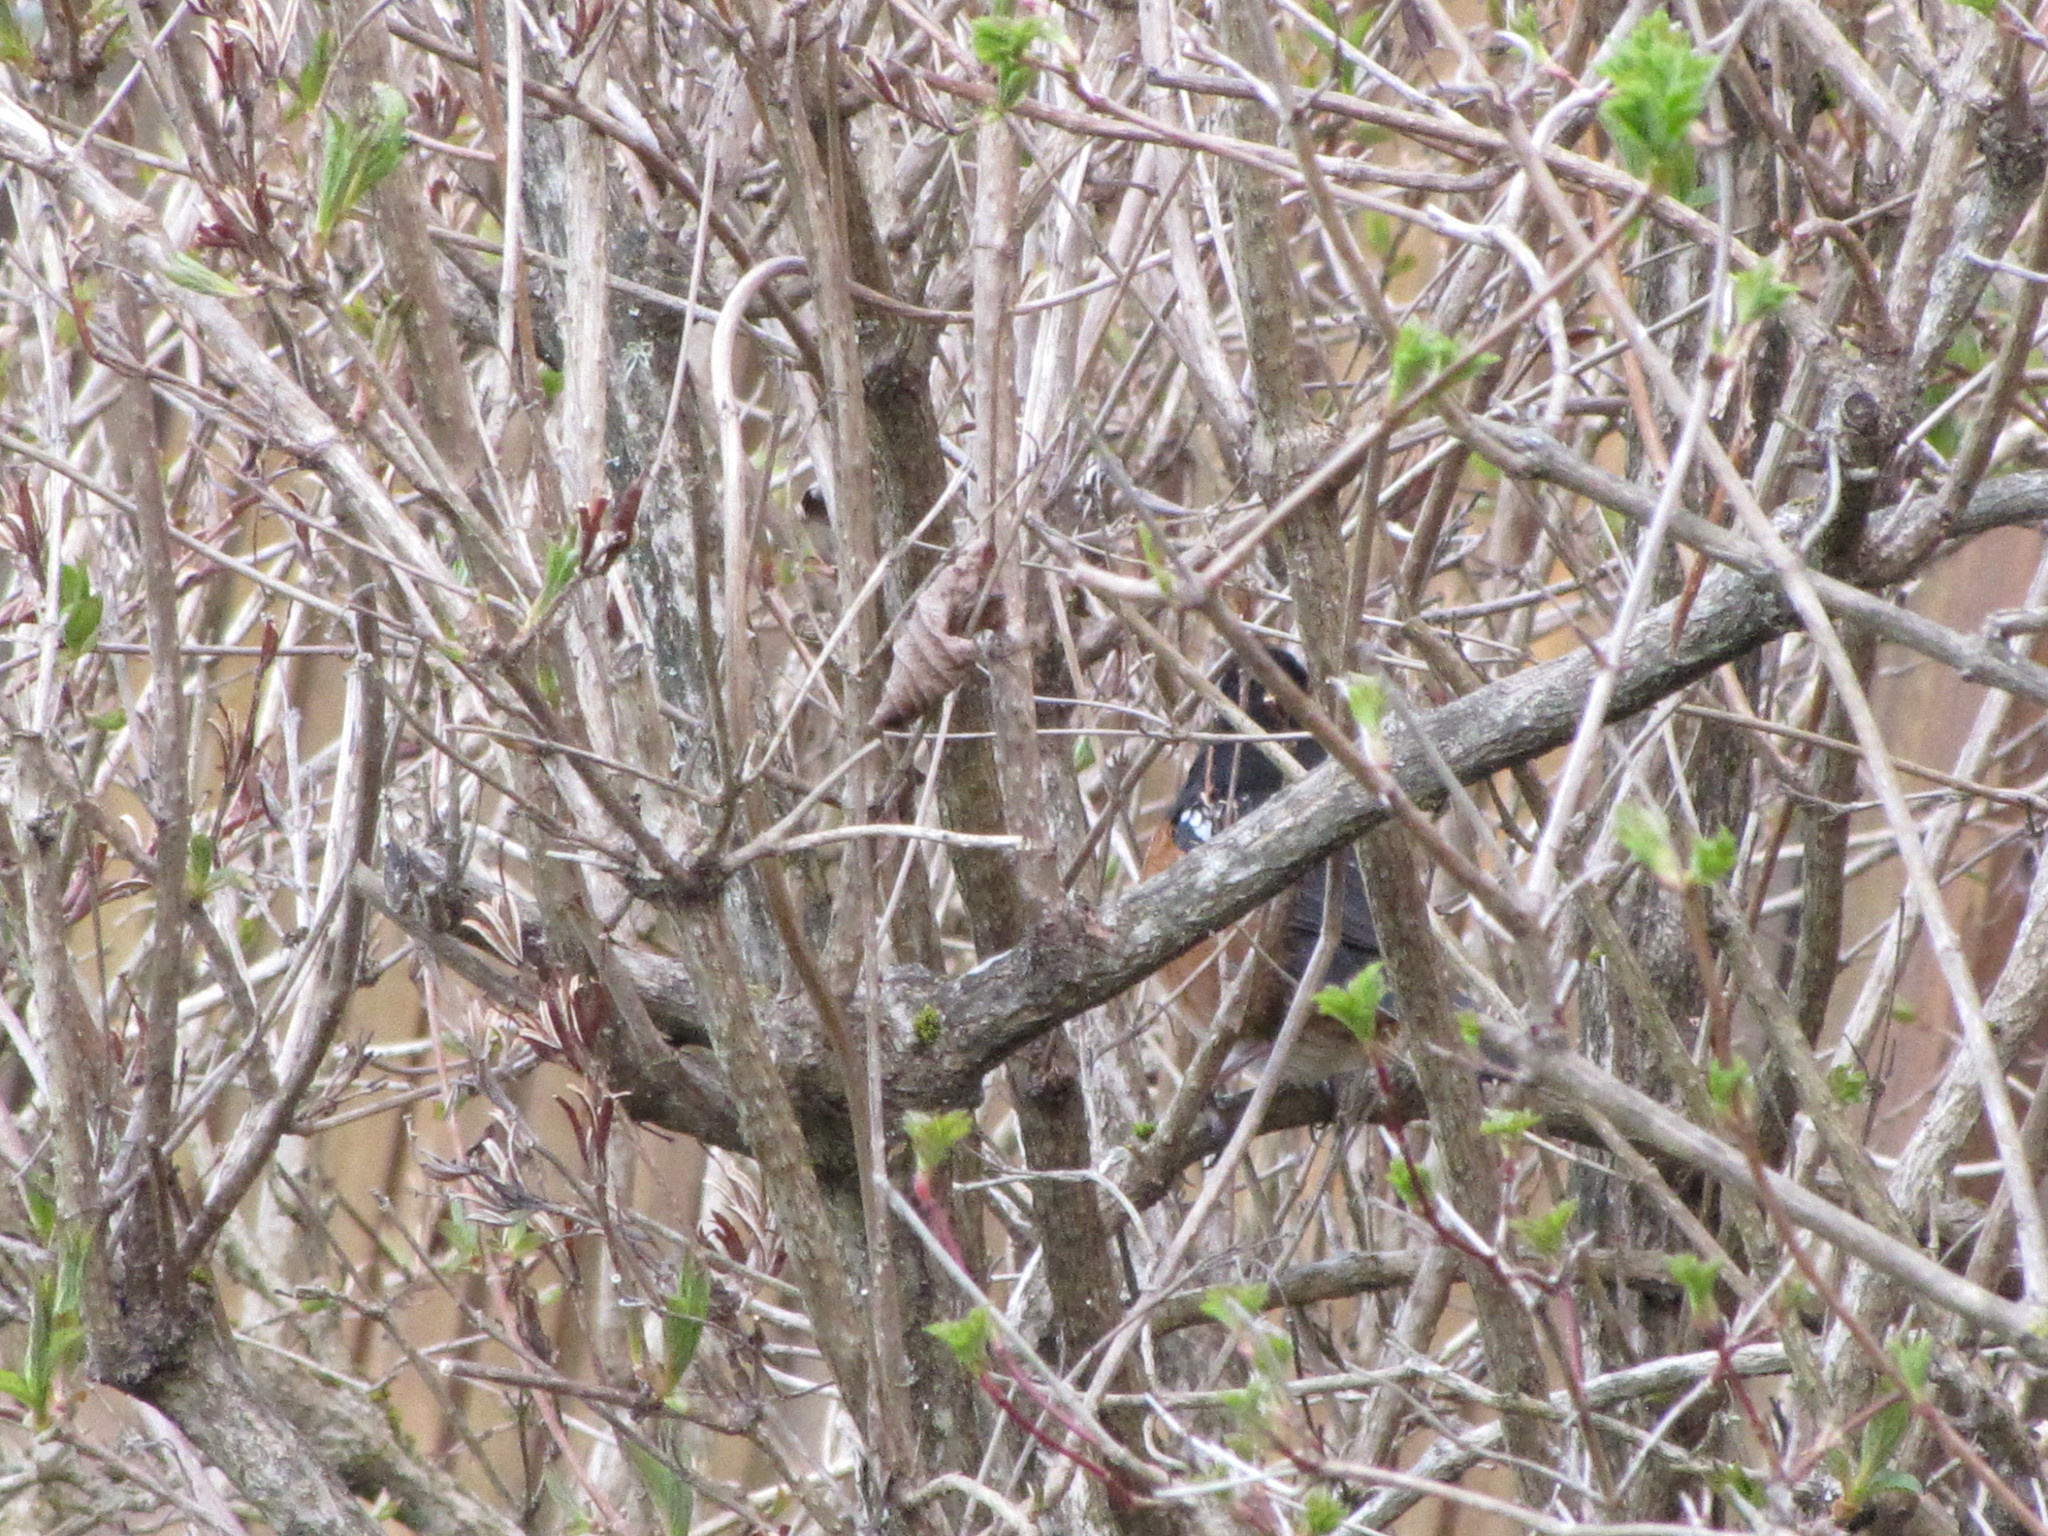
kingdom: Animalia
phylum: Chordata
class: Aves
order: Passeriformes
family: Passerellidae
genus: Pipilo
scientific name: Pipilo maculatus
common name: Spotted towhee
